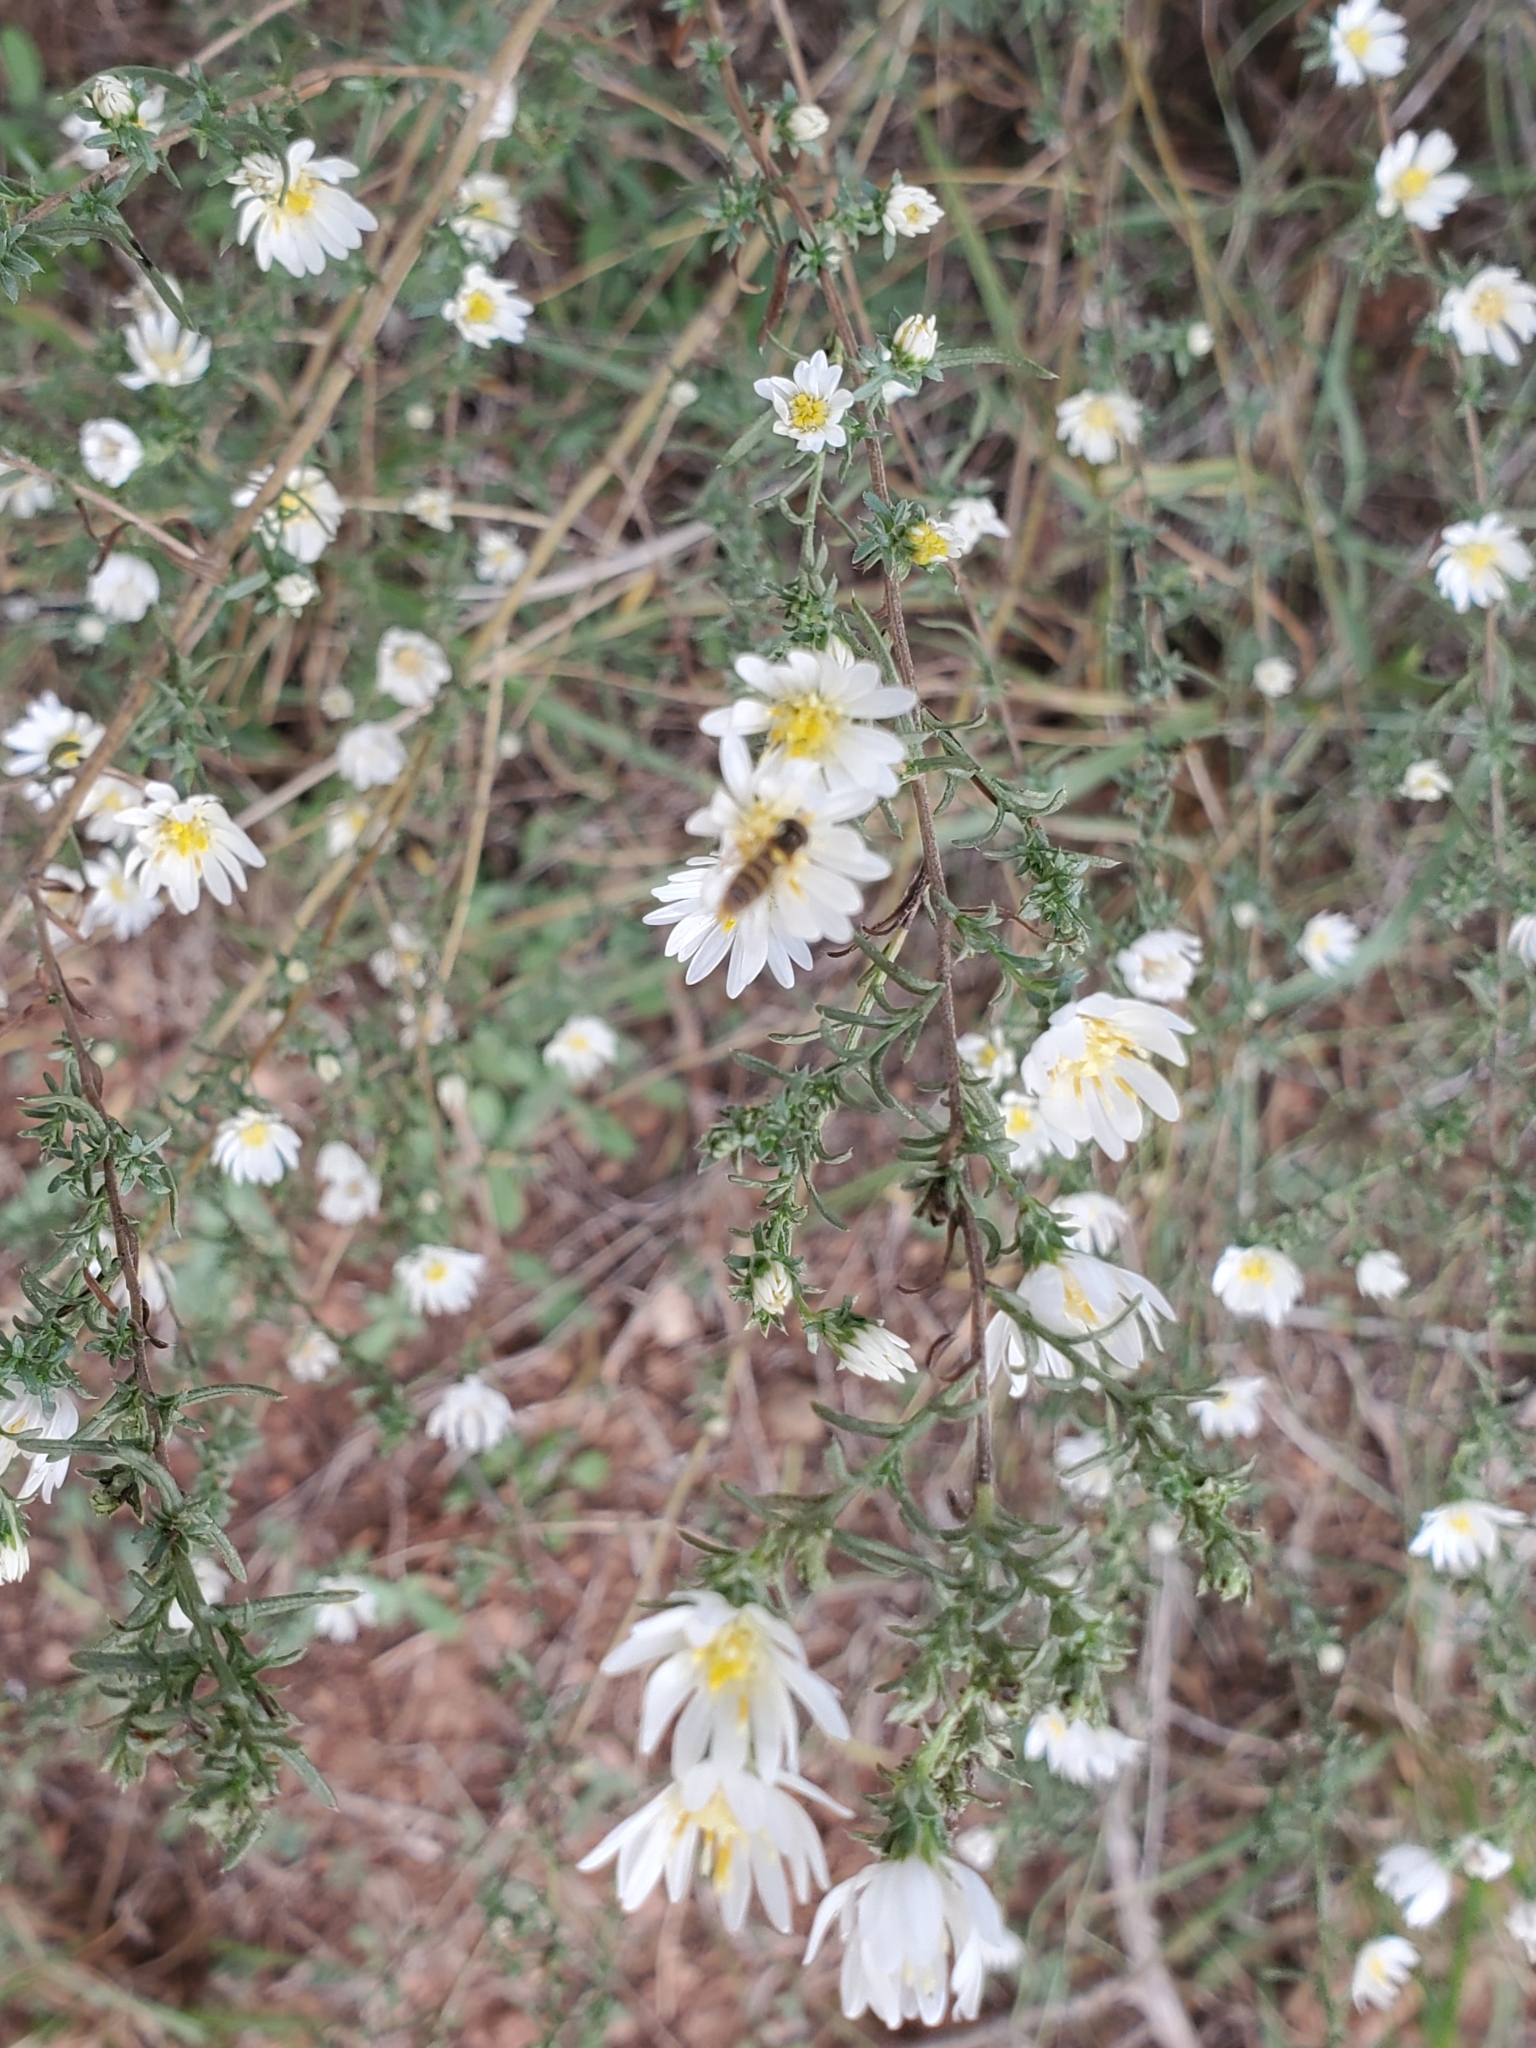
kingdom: Plantae
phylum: Tracheophyta
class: Magnoliopsida
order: Asterales
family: Asteraceae
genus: Symphyotrichum
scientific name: Symphyotrichum ericoides
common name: Heath aster
